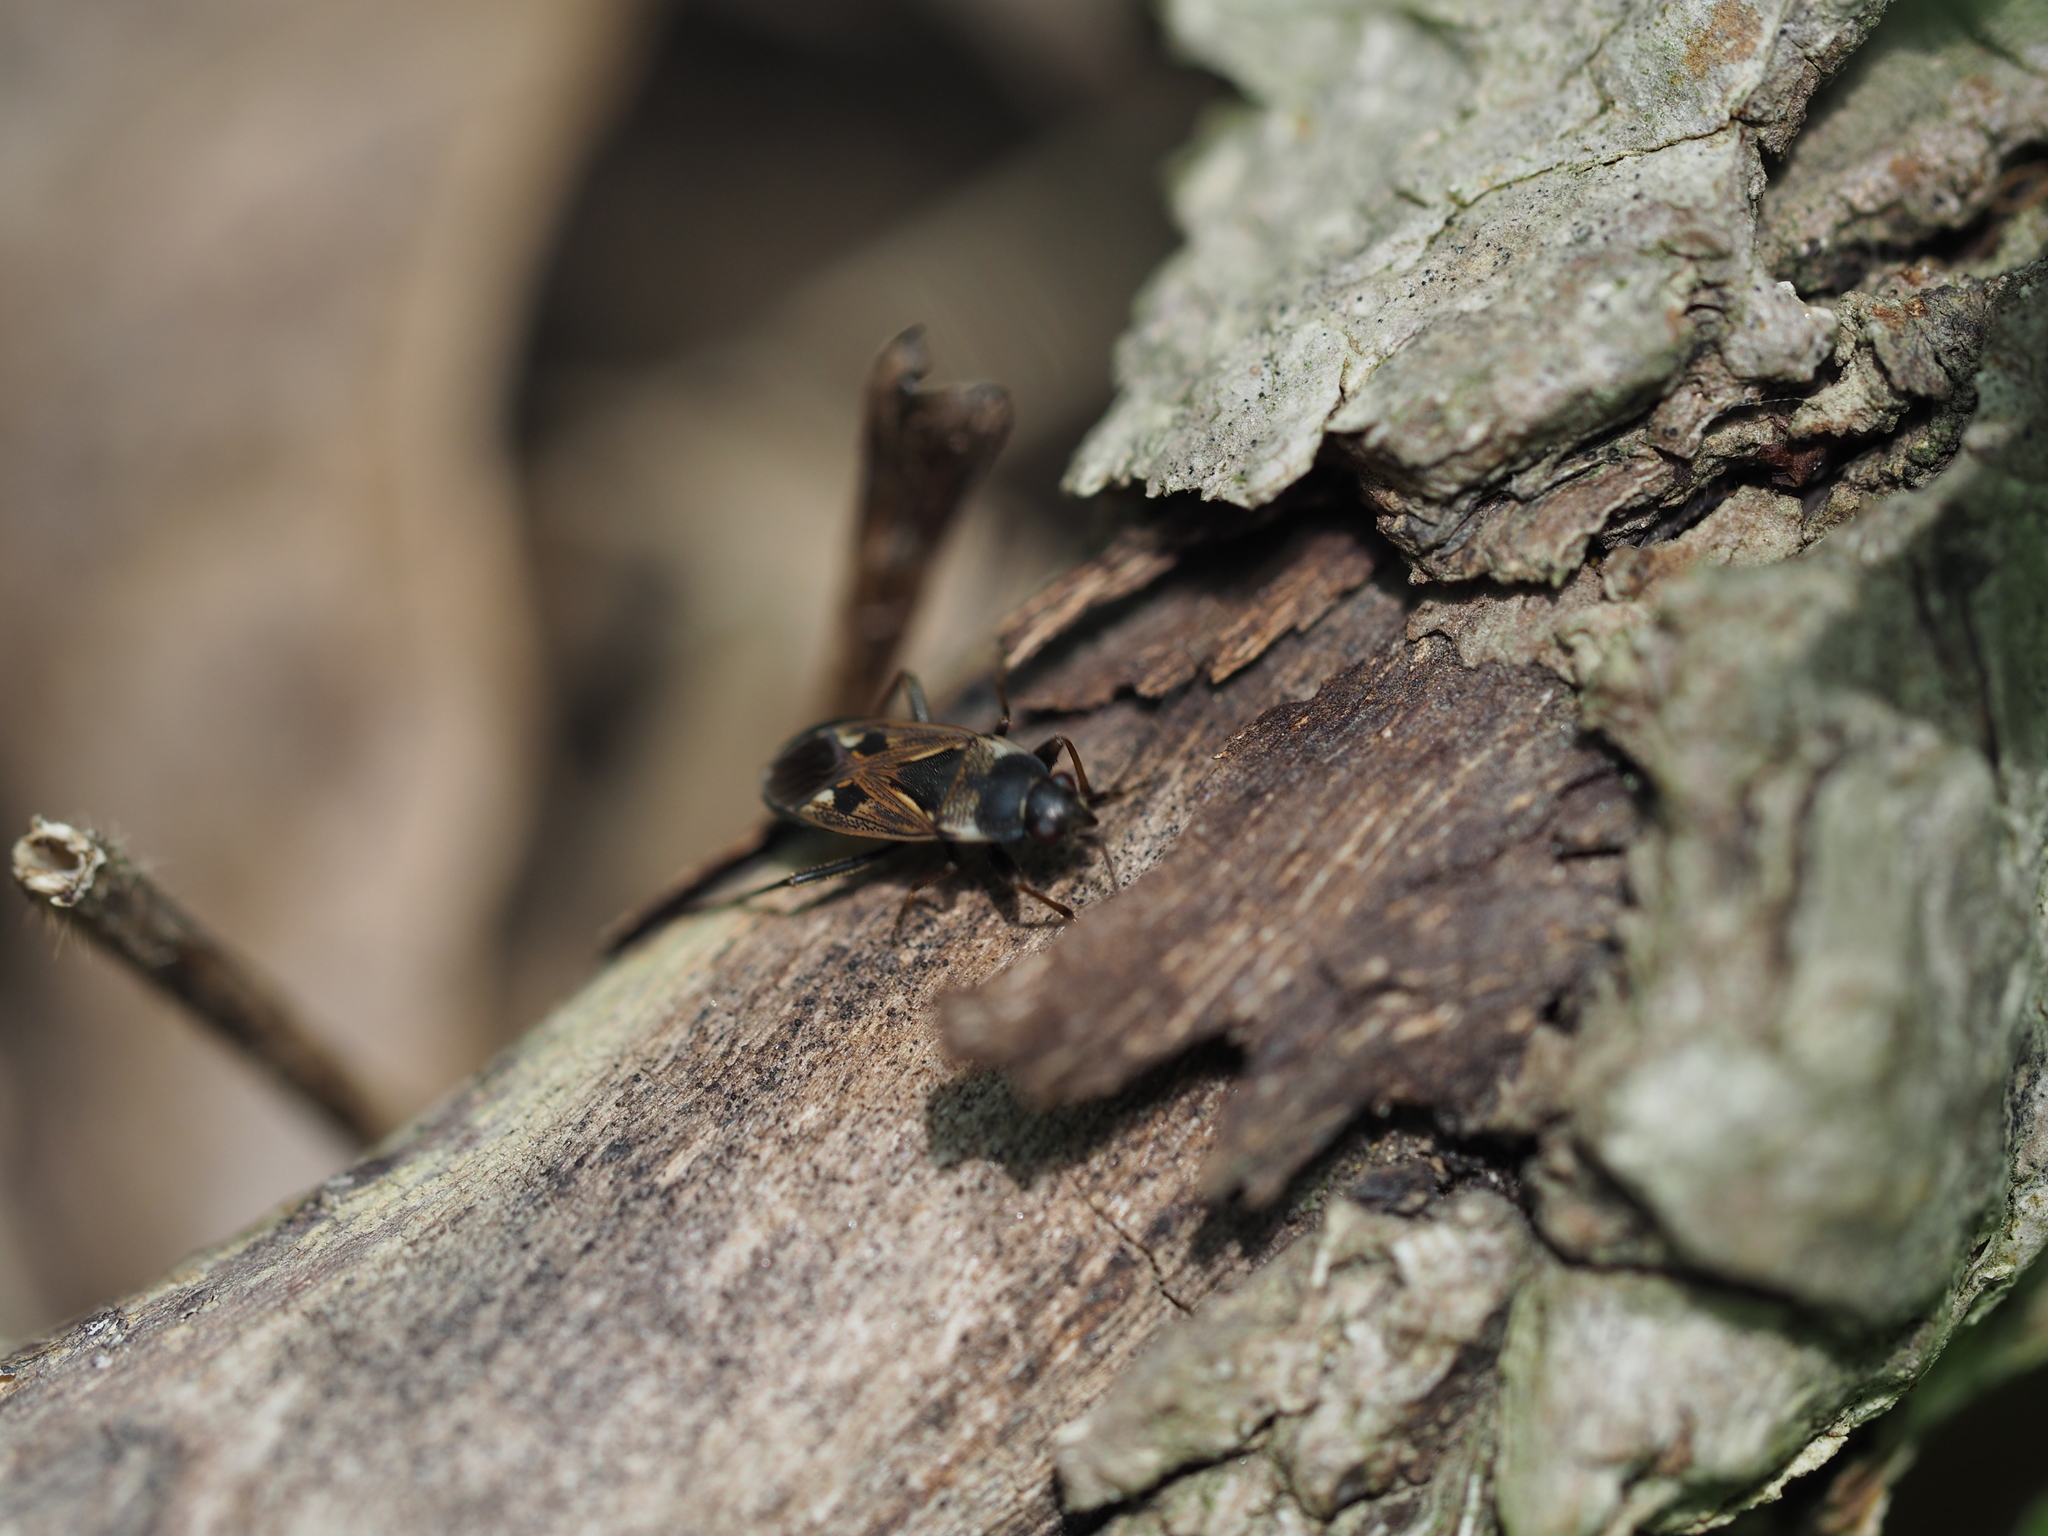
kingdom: Animalia
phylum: Arthropoda
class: Insecta
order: Hemiptera
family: Rhyparochromidae
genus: Rhyparochromus
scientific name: Rhyparochromus vulgaris
